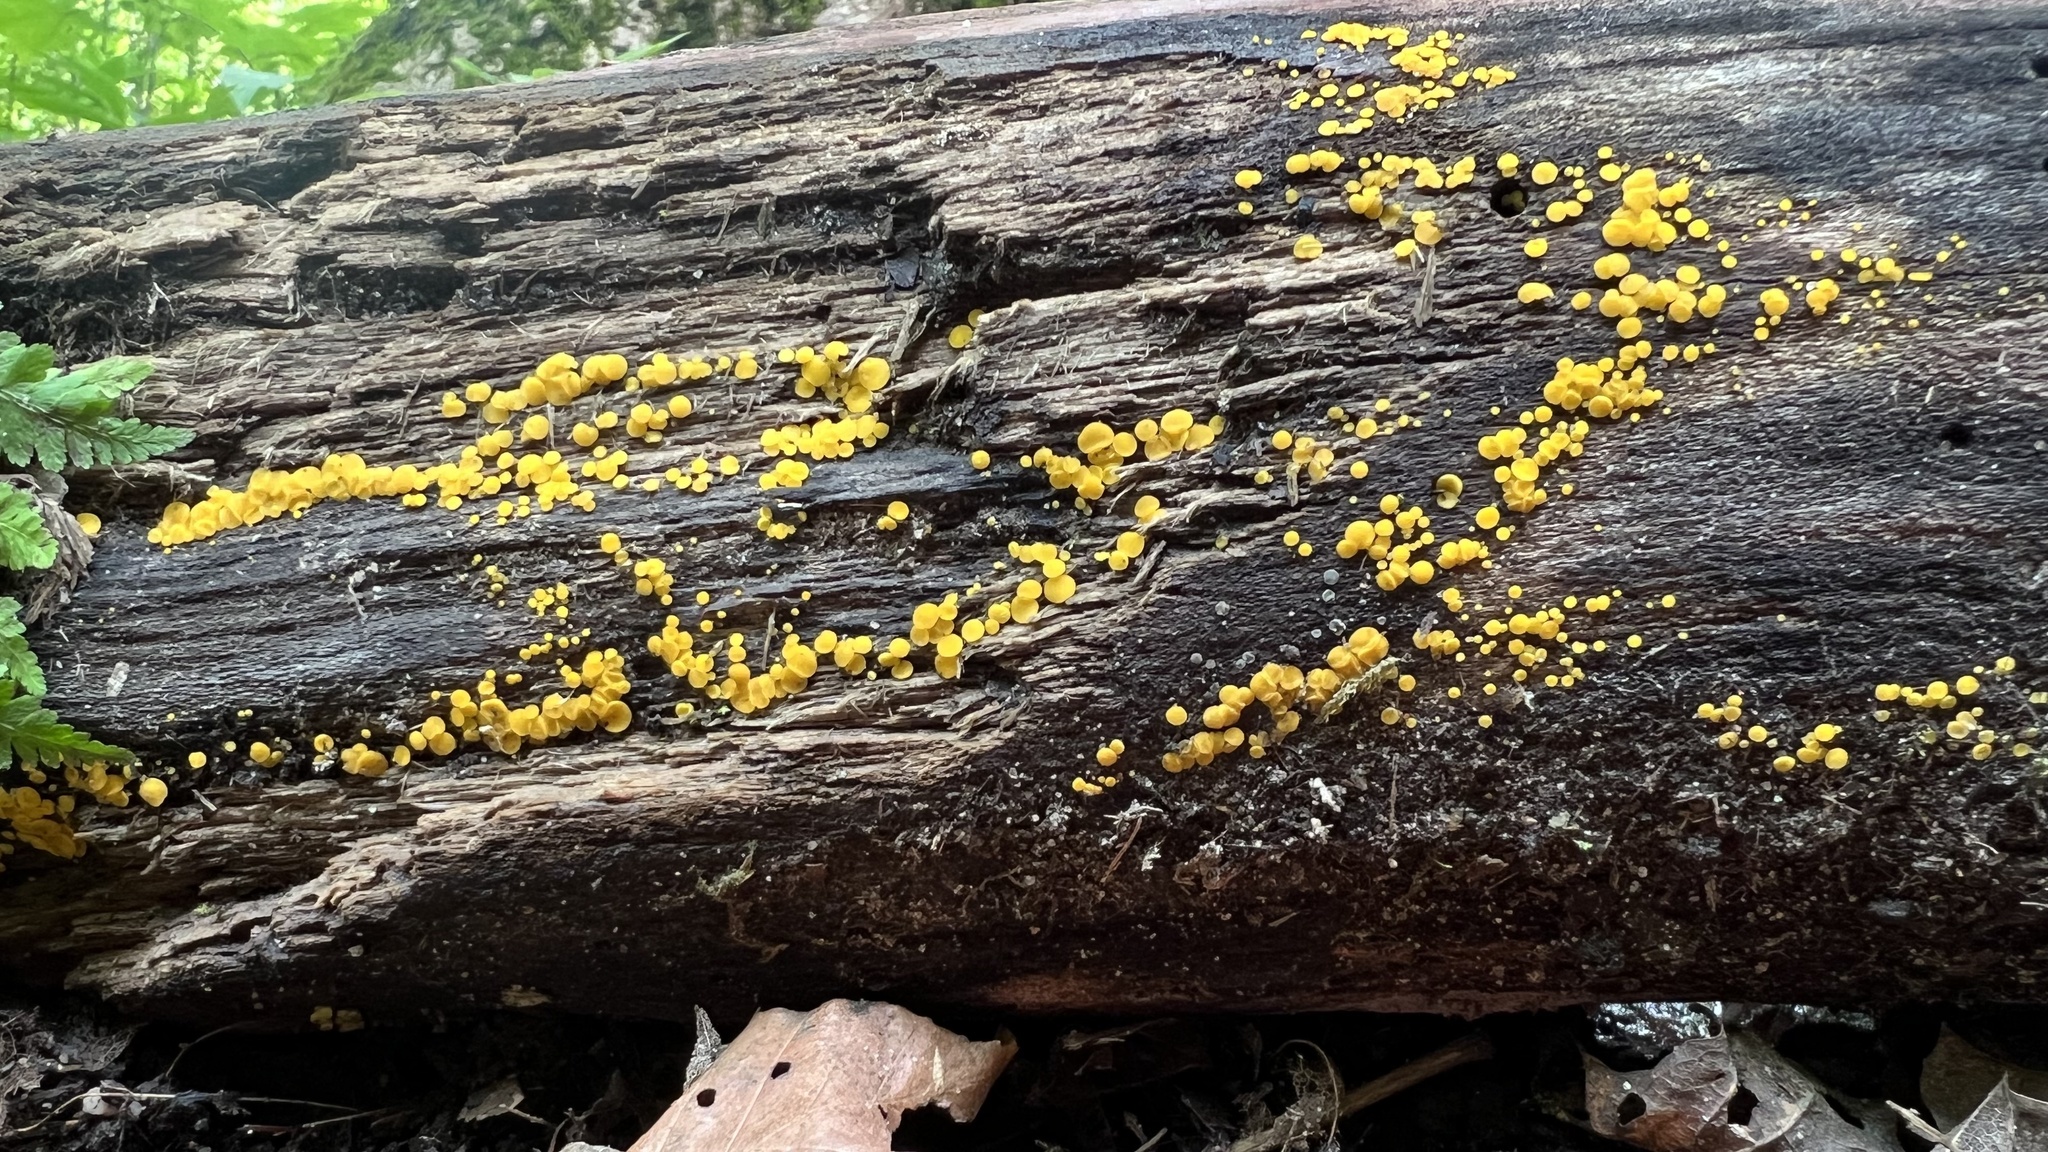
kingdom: Fungi
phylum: Ascomycota
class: Leotiomycetes
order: Helotiales
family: Pezizellaceae
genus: Calycina
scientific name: Calycina citrina
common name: Yellow fairy cups
